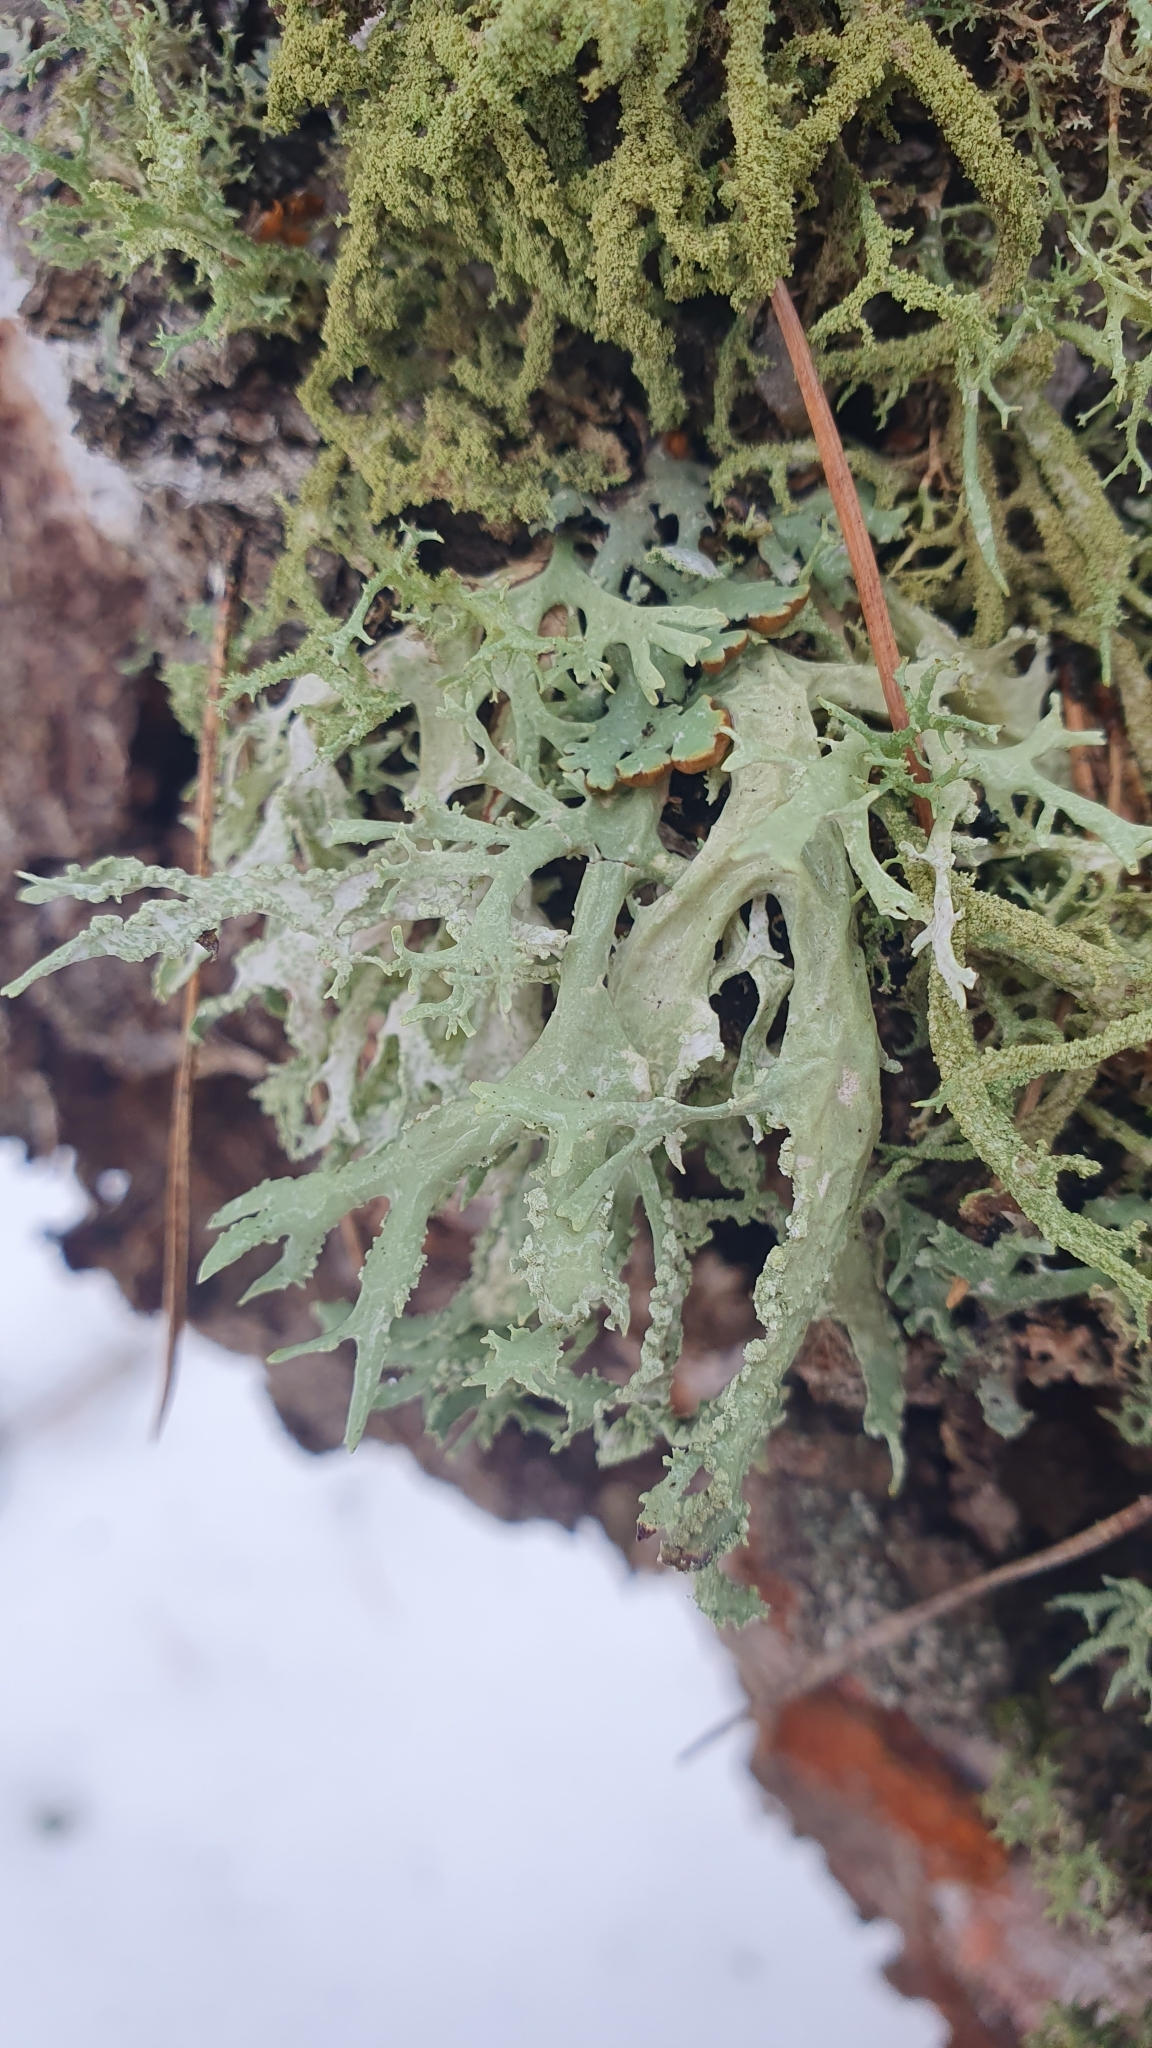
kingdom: Fungi
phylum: Ascomycota
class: Lecanoromycetes
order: Lecanorales
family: Parmeliaceae
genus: Evernia
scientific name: Evernia prunastri
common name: Oak moss
